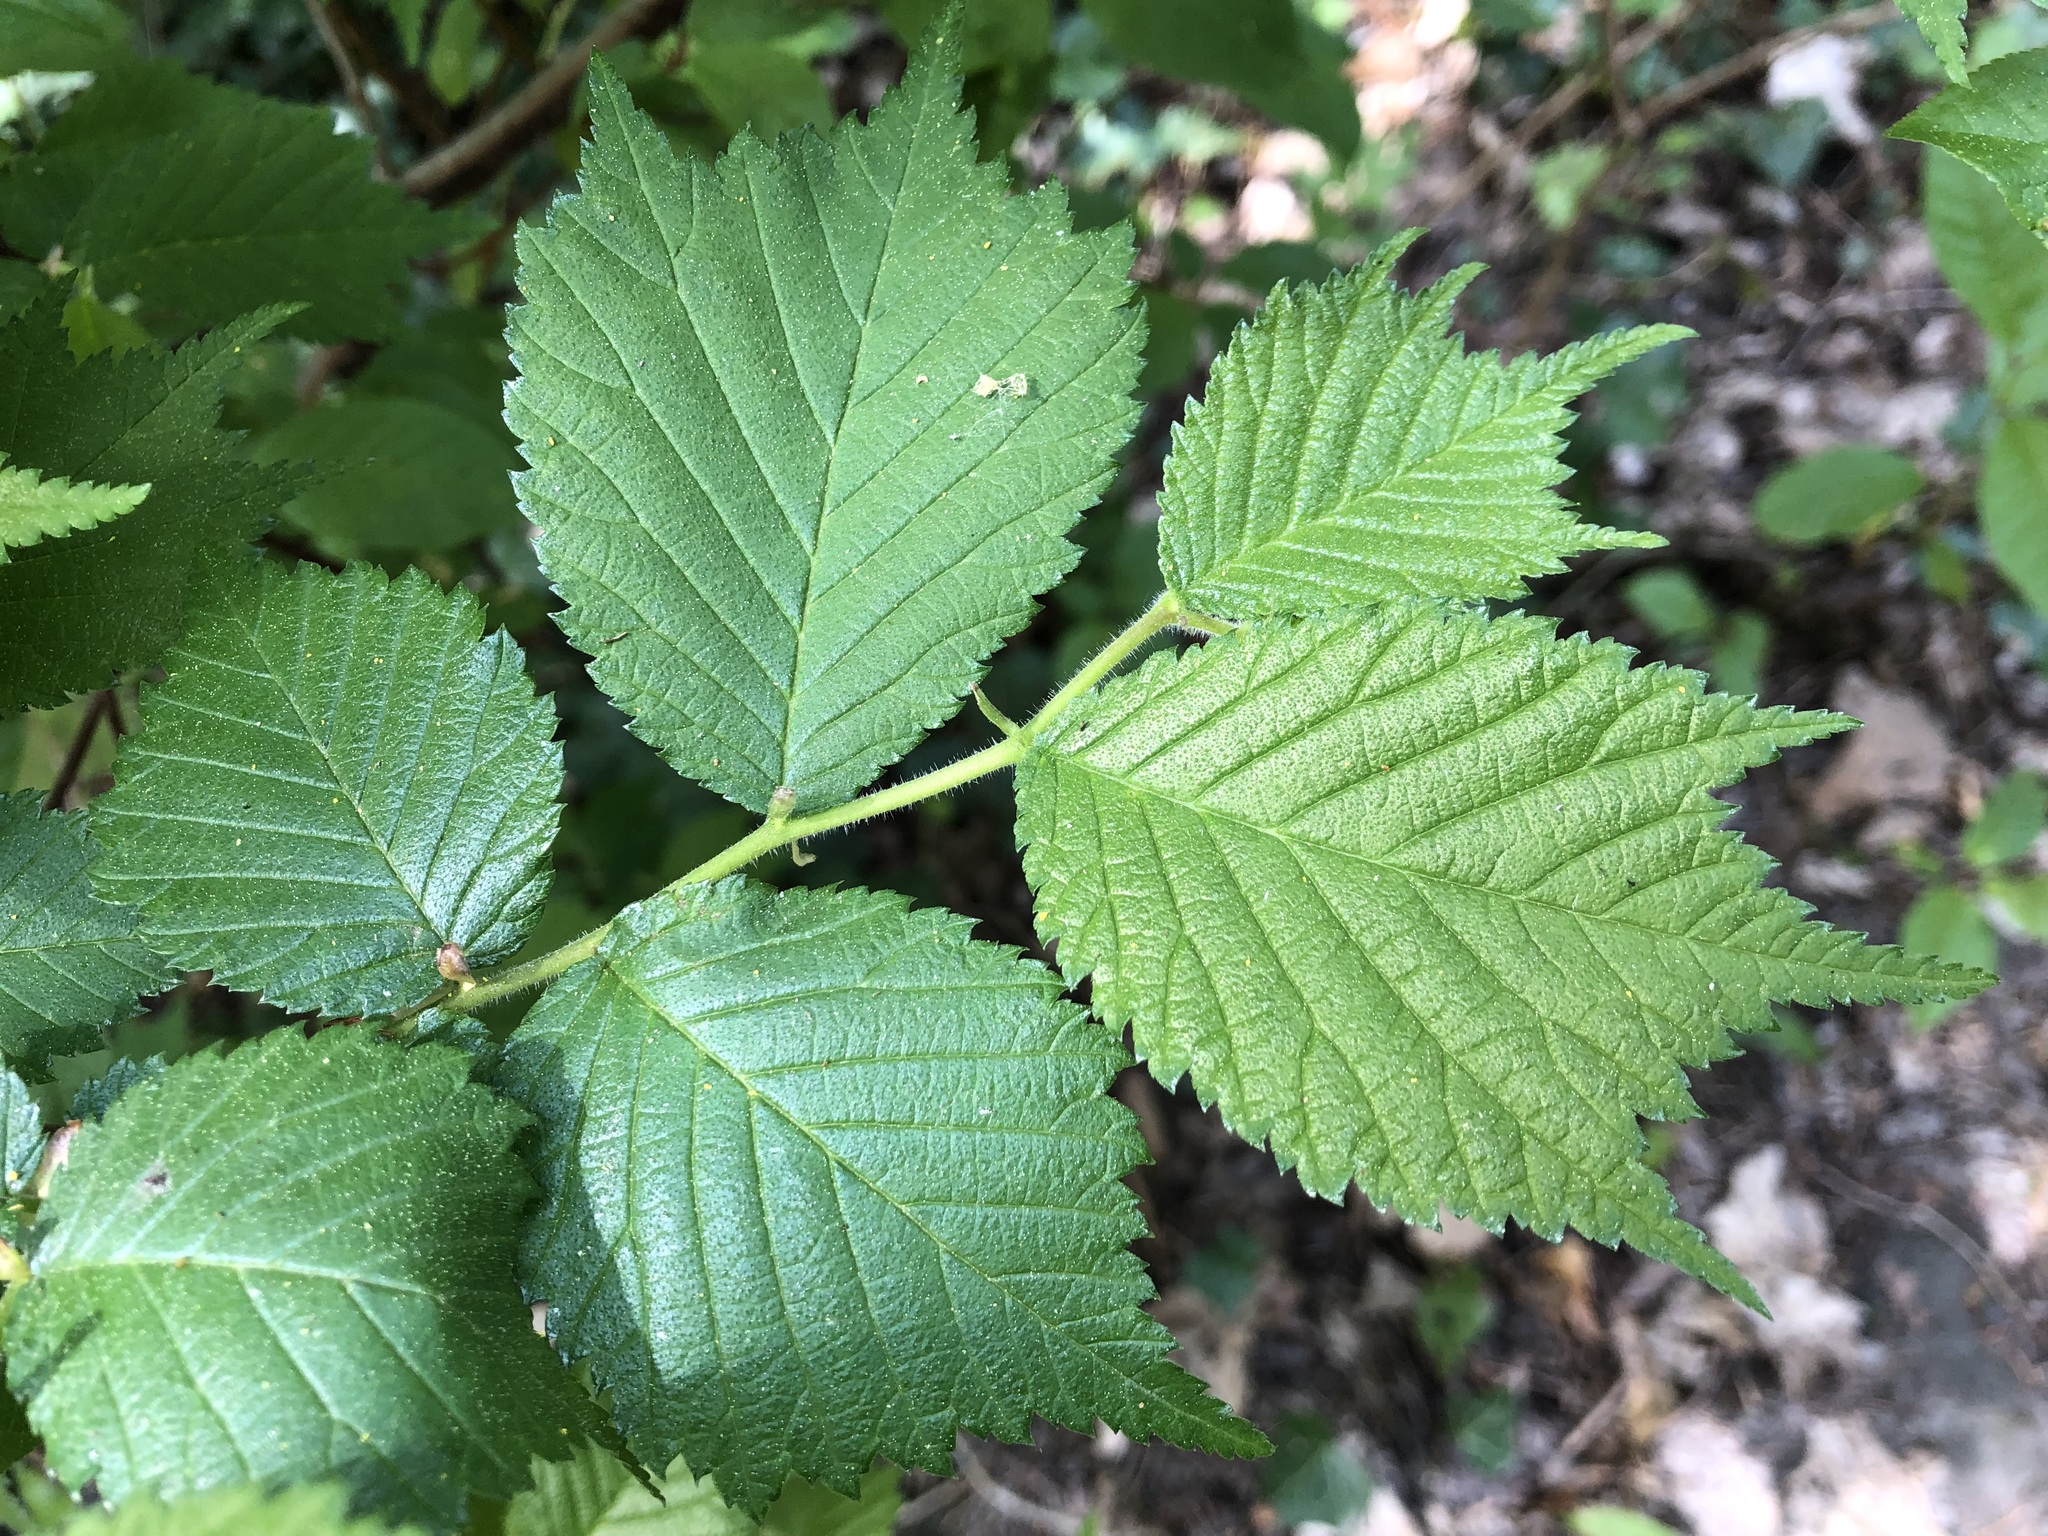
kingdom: Plantae
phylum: Tracheophyta
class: Magnoliopsida
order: Rosales
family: Ulmaceae
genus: Ulmus
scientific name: Ulmus glabra
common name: Wych elm
